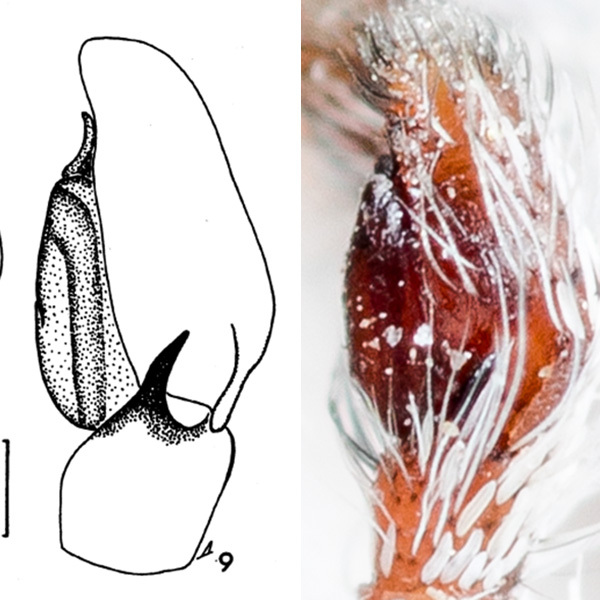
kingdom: Animalia
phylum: Arthropoda
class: Arachnida
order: Araneae
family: Salticidae
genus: Pellenes
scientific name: Pellenes dilutus
